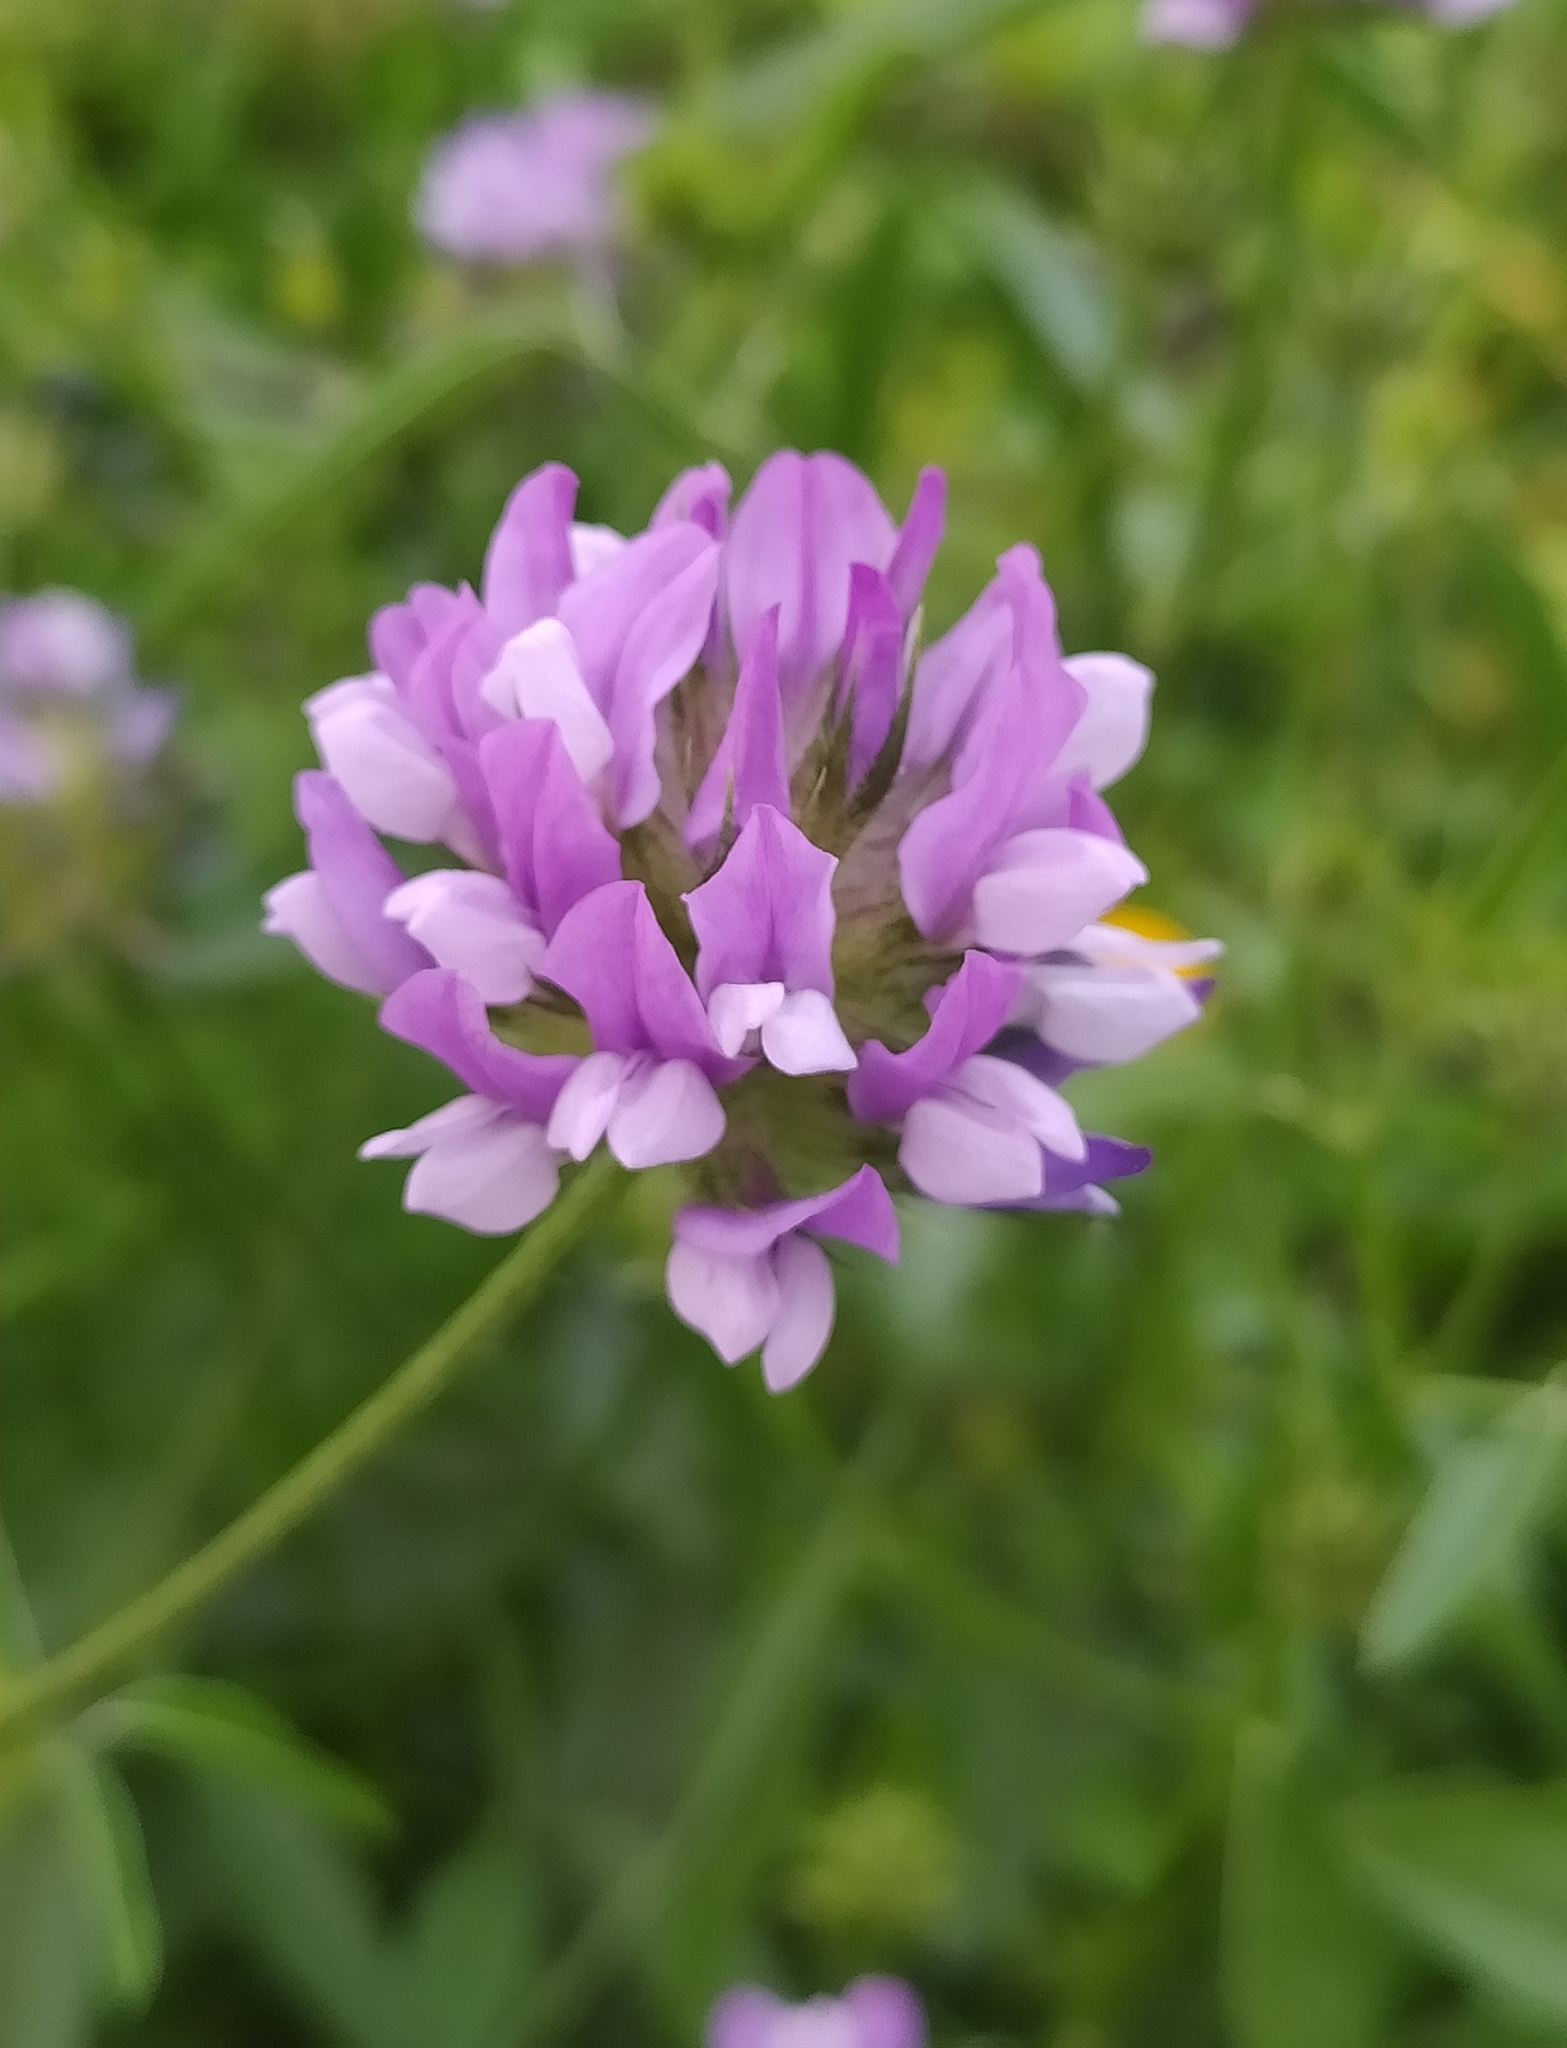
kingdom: Plantae
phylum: Tracheophyta
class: Magnoliopsida
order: Fabales
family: Fabaceae
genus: Bituminaria
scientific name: Bituminaria bituminosa
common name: Arabian pea
